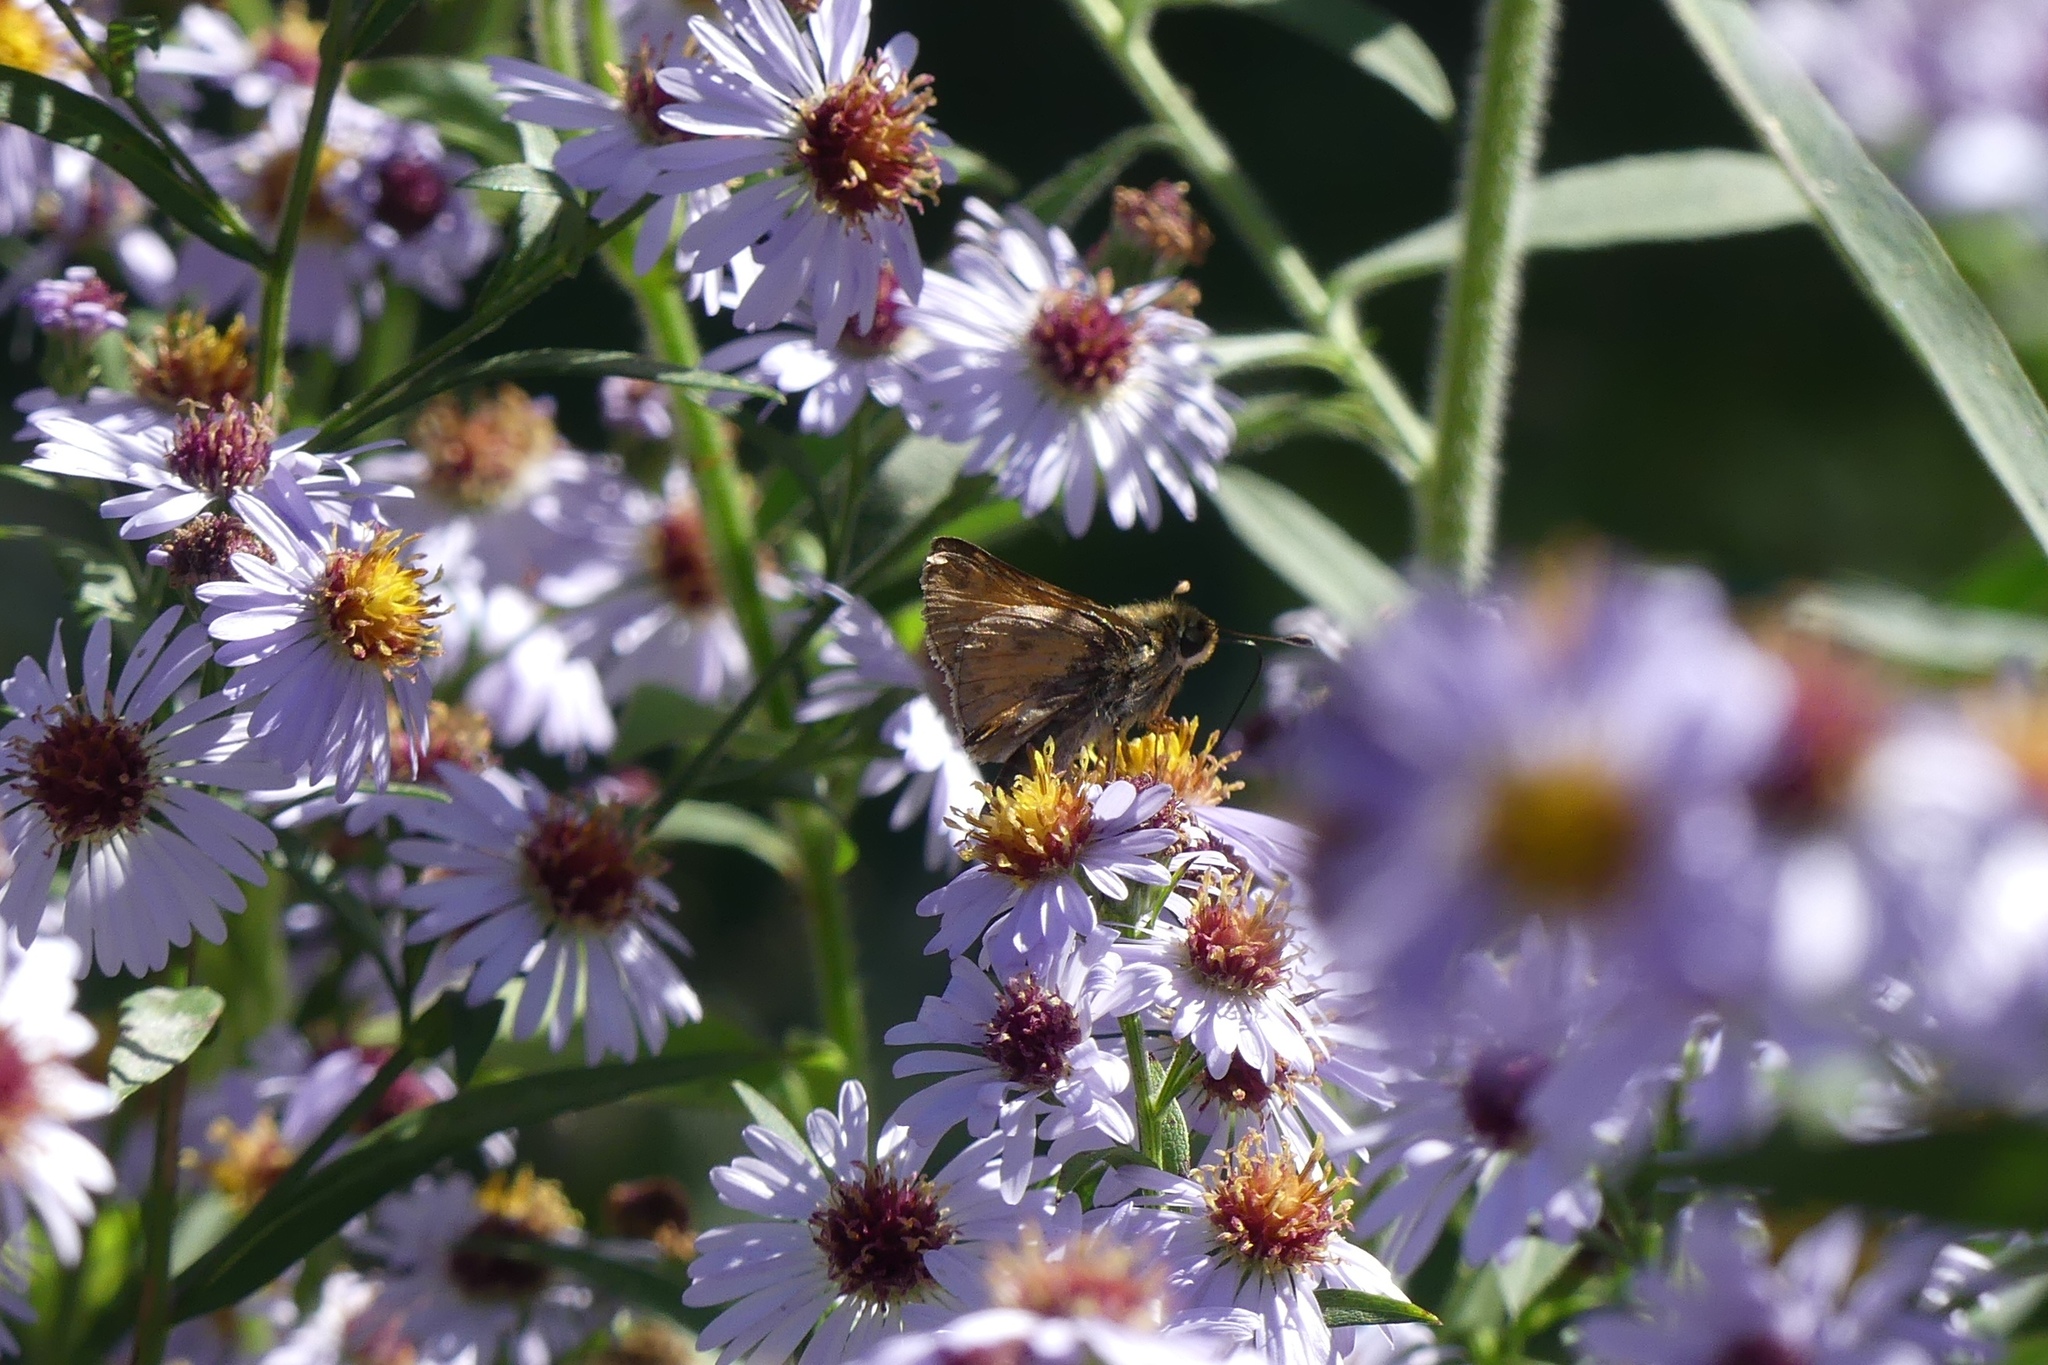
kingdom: Animalia
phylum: Arthropoda
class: Insecta
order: Lepidoptera
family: Hesperiidae
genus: Atalopedes
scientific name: Atalopedes
